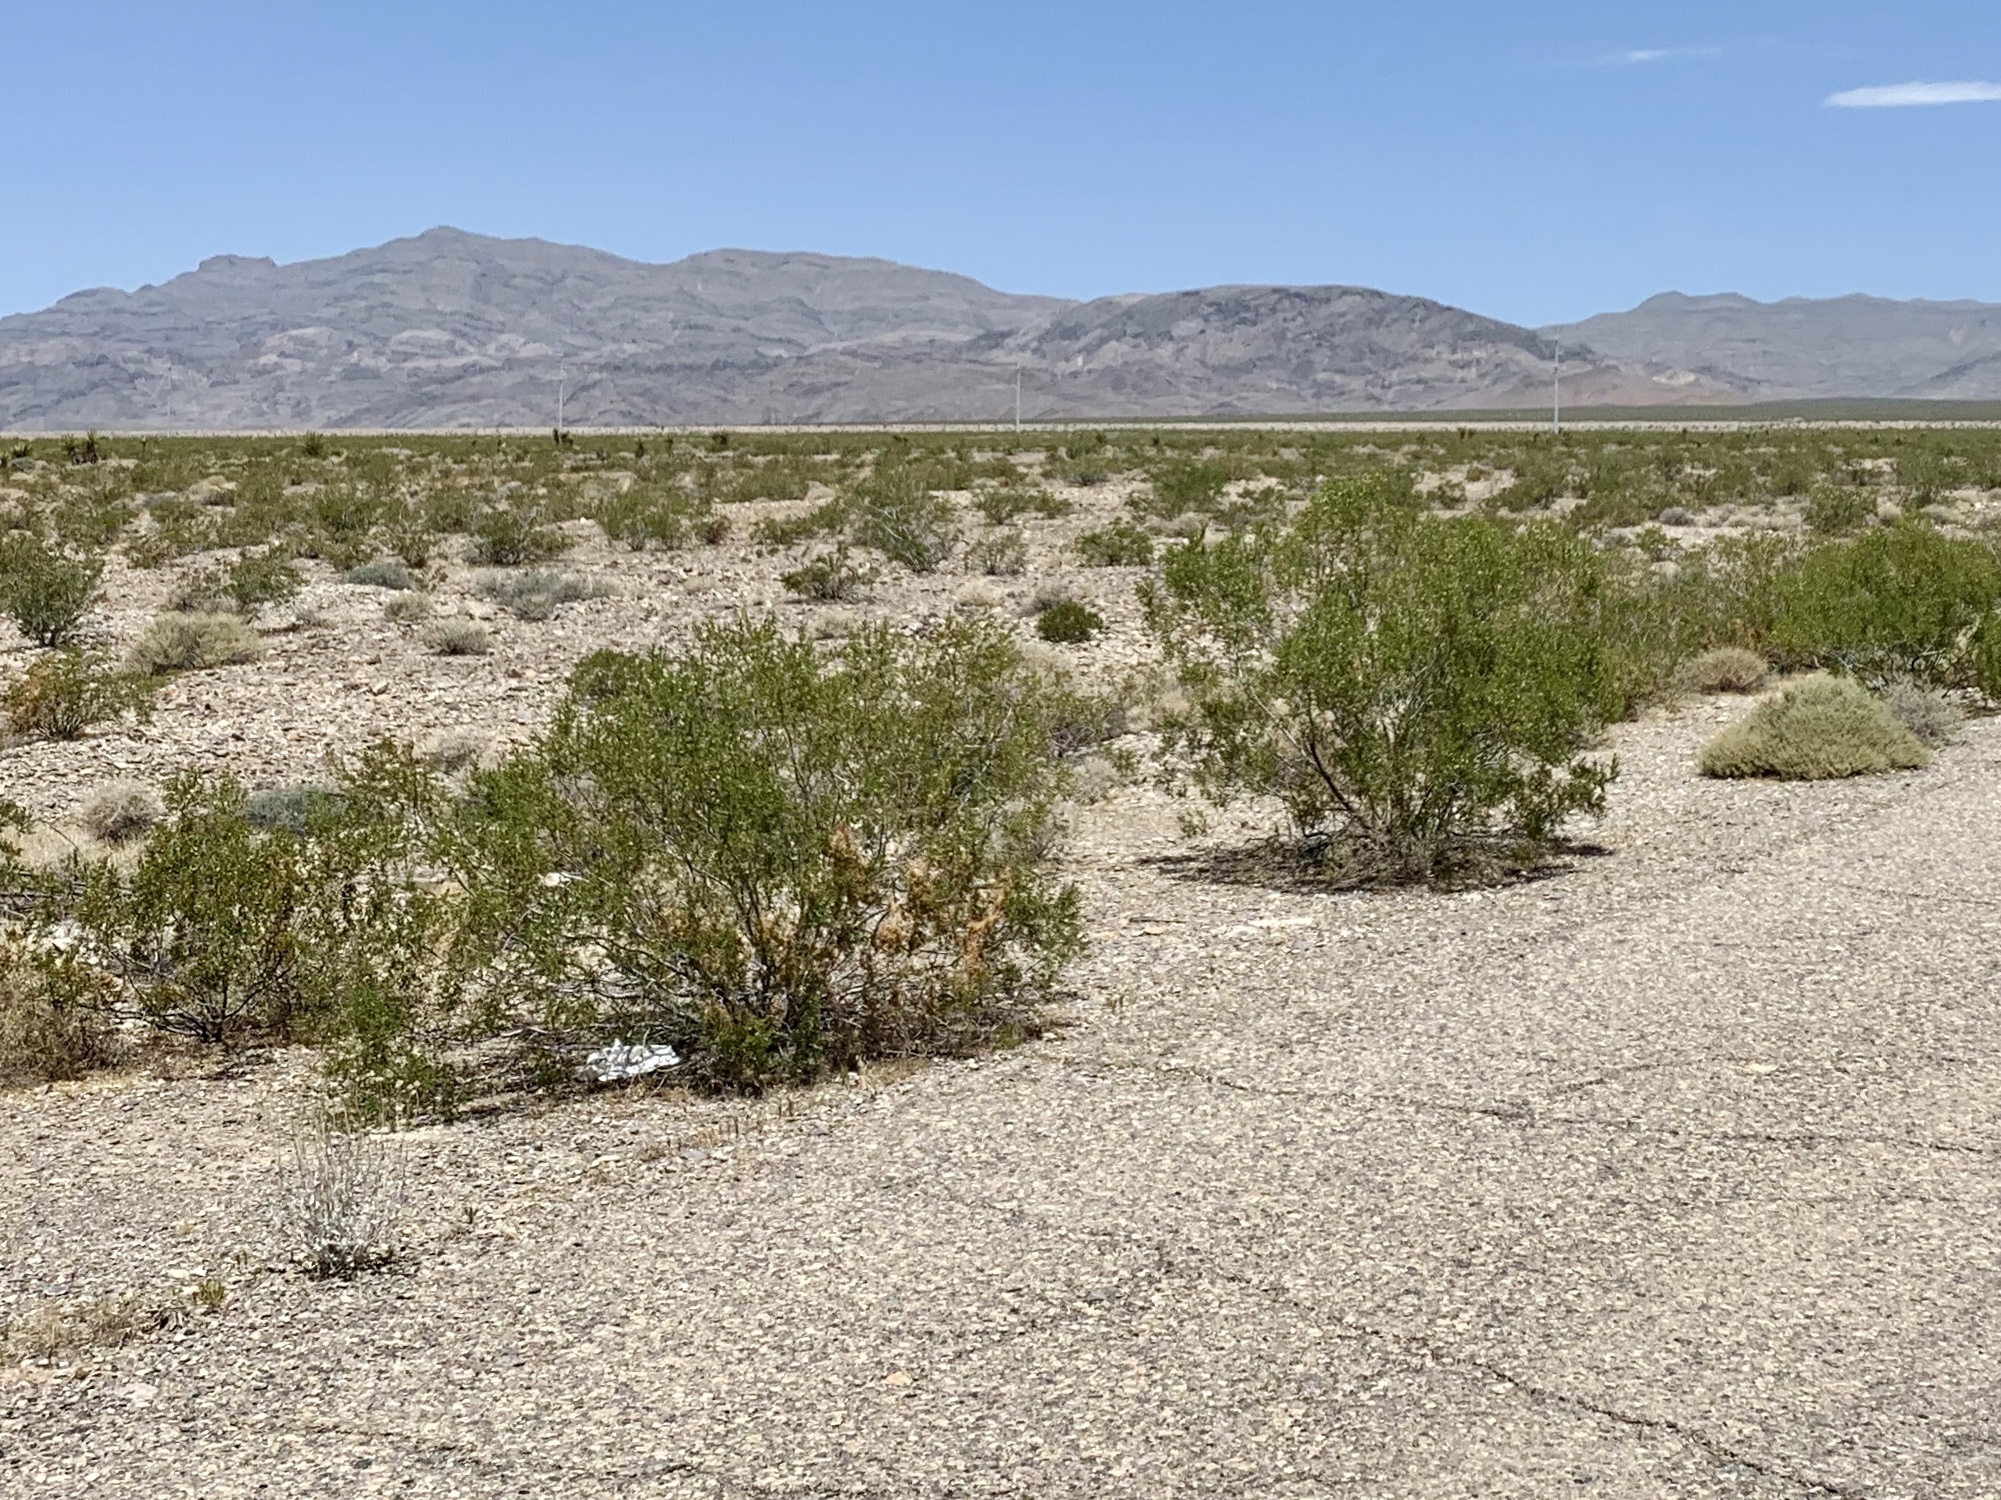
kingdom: Plantae
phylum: Tracheophyta
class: Magnoliopsida
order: Zygophyllales
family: Zygophyllaceae
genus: Larrea
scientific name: Larrea tridentata
